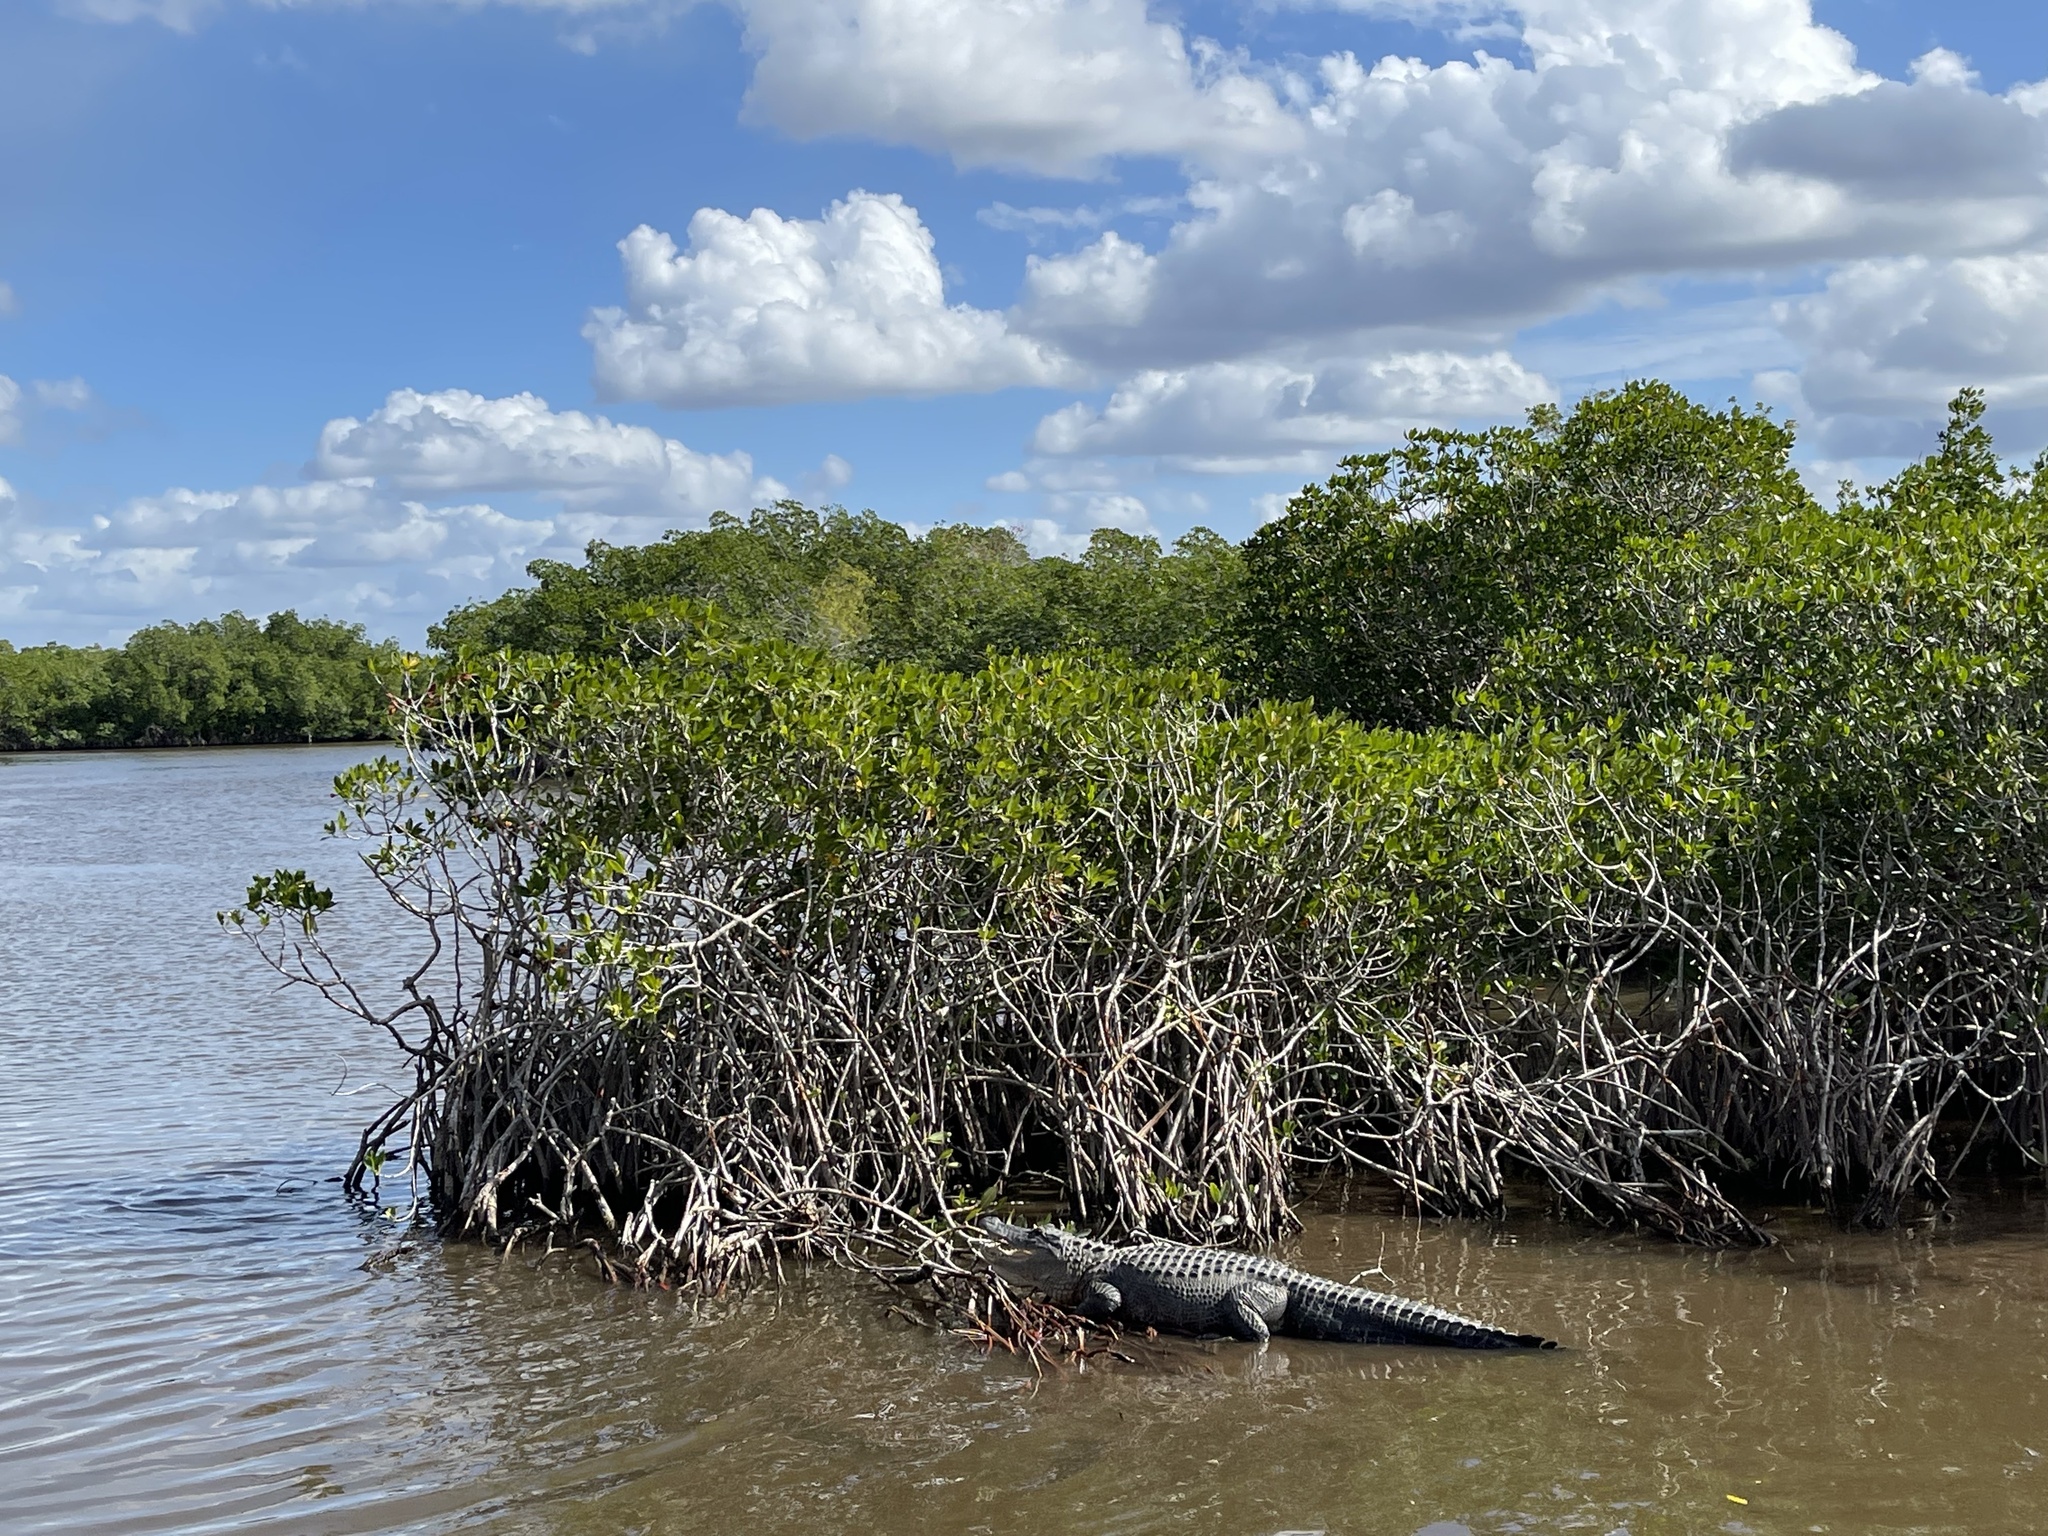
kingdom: Animalia
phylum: Chordata
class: Crocodylia
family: Alligatoridae
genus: Alligator
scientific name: Alligator mississippiensis
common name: American alligator
